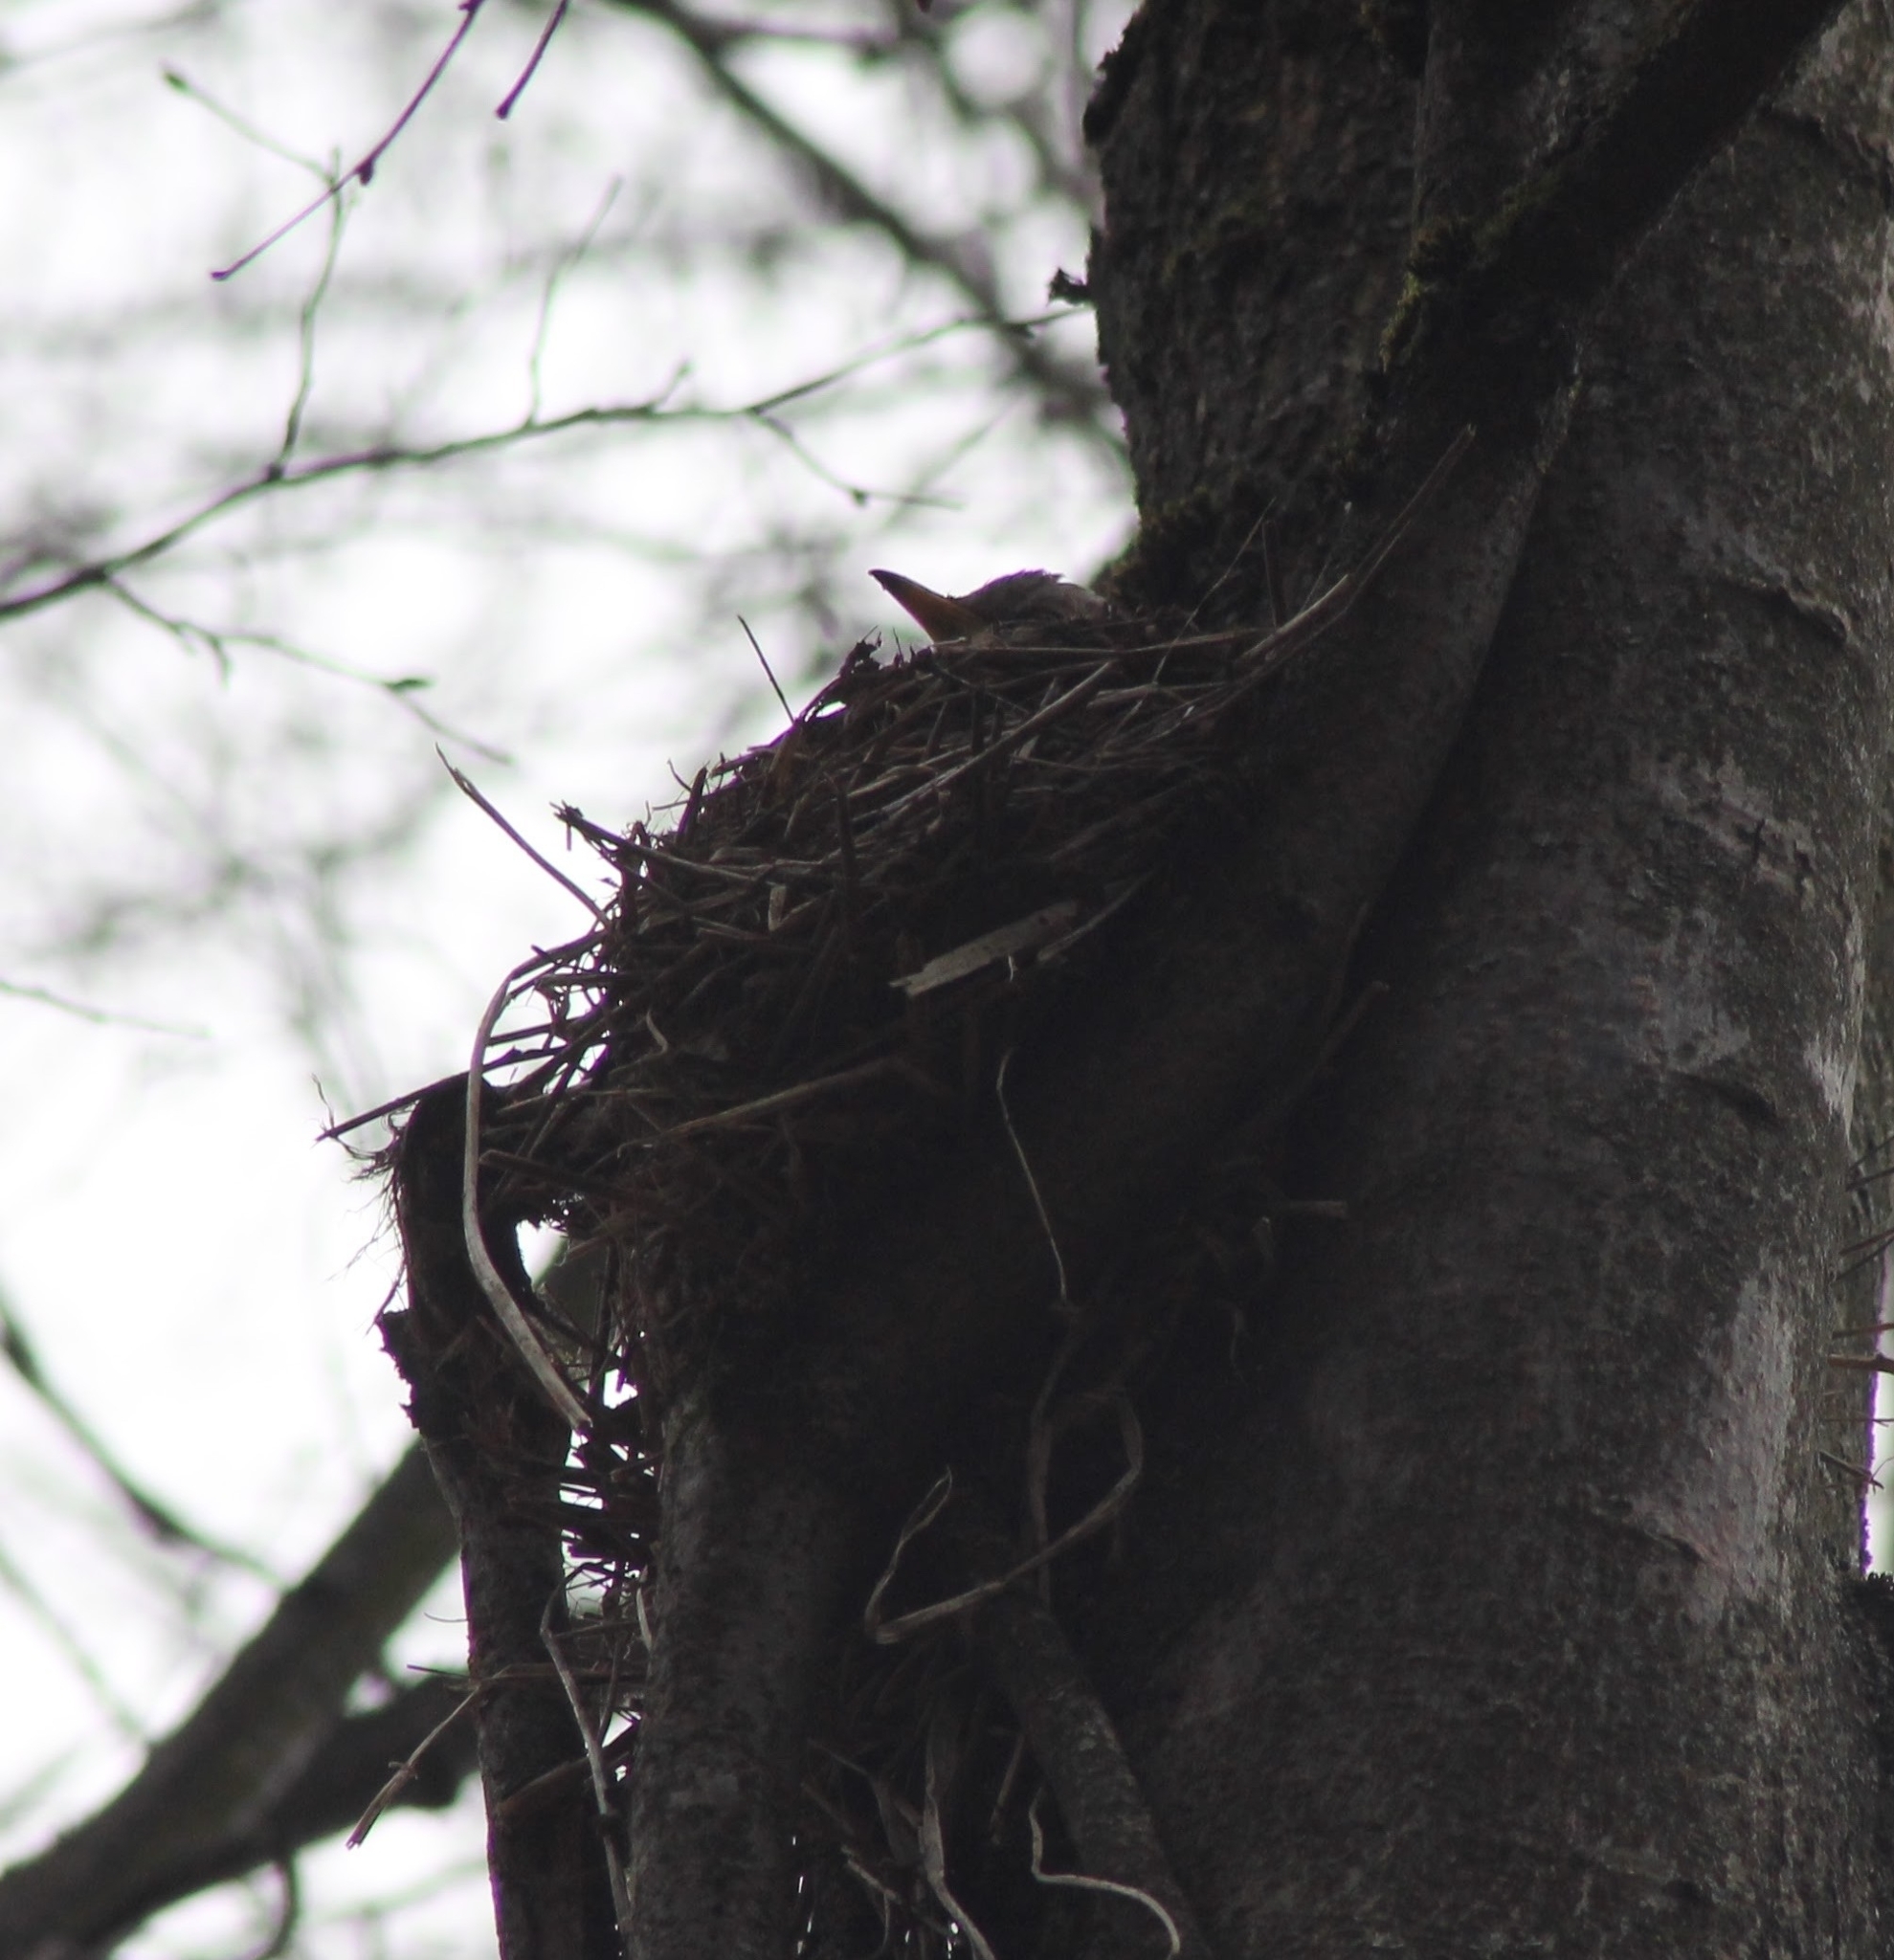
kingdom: Animalia
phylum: Chordata
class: Aves
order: Passeriformes
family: Turdidae
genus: Turdus
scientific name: Turdus pilaris
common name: Fieldfare
